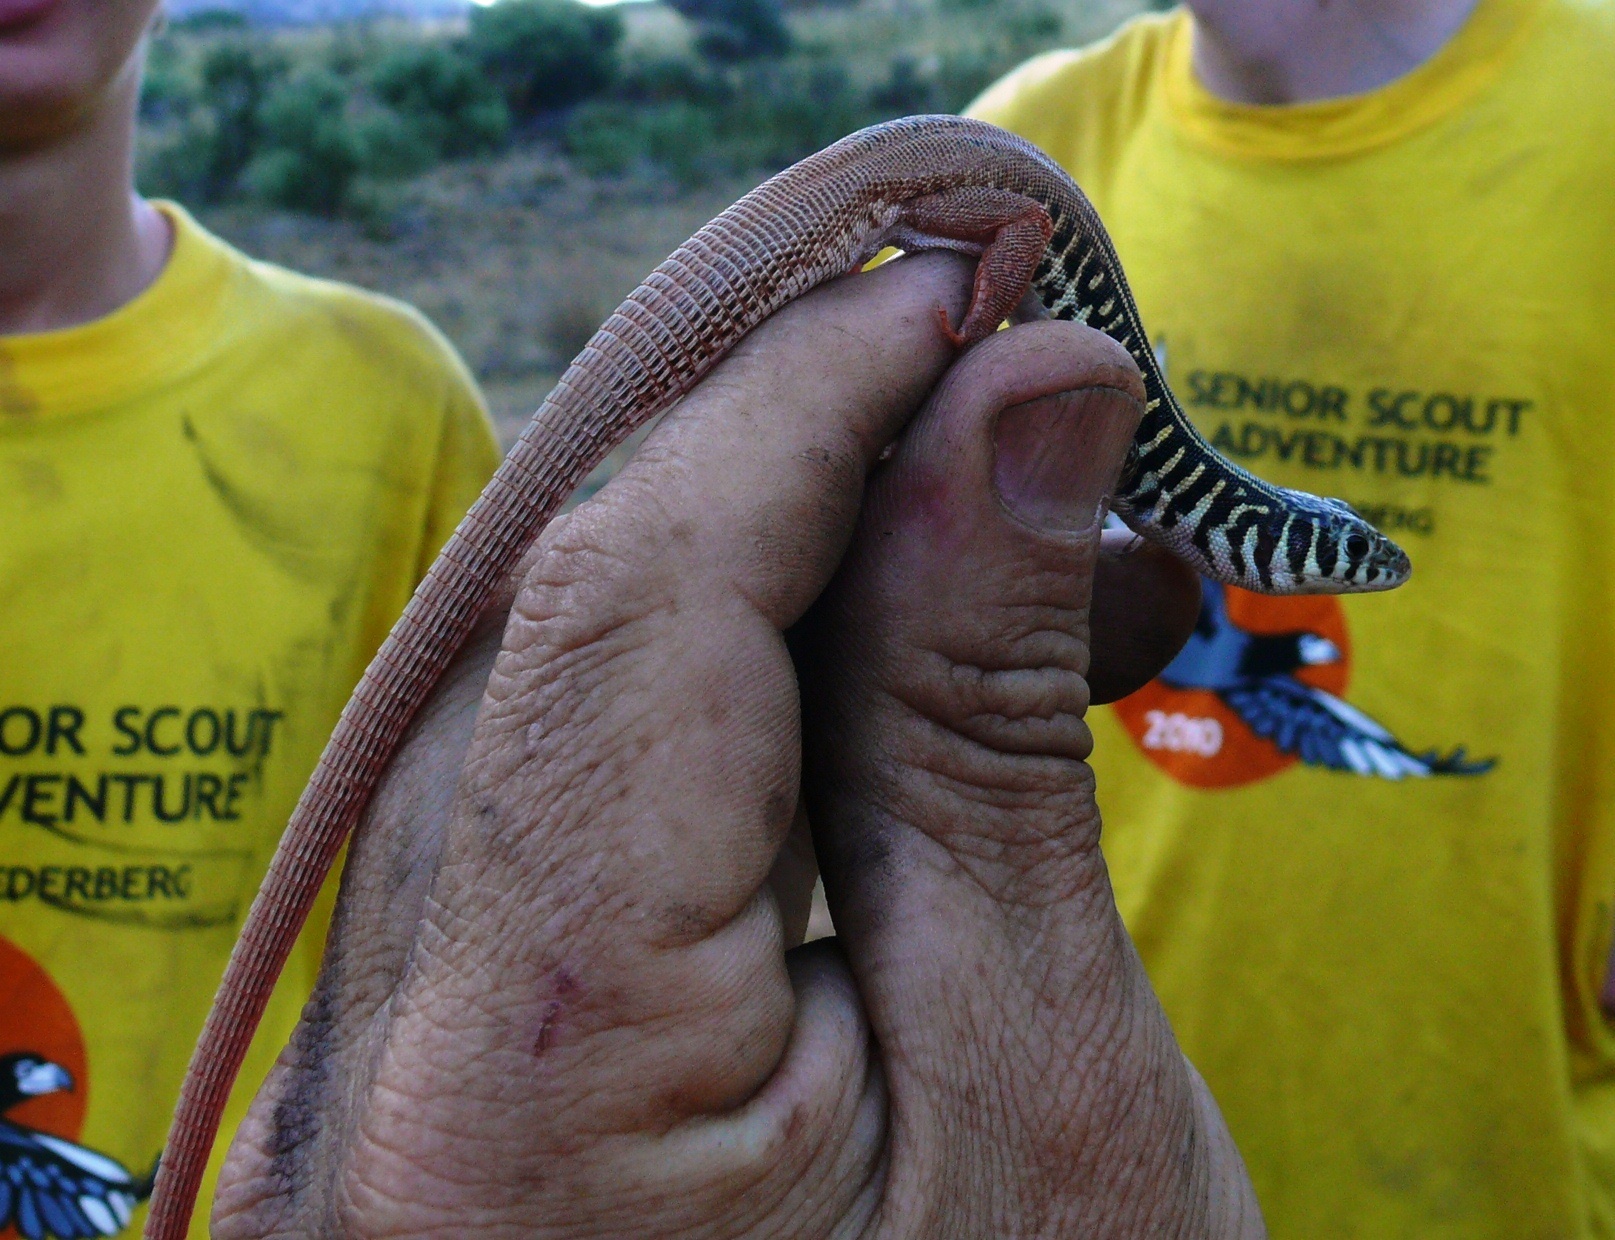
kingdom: Animalia
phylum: Chordata
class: Squamata
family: Lacertidae
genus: Nucras
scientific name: Nucras tessellata
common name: Western sandveld lizard
